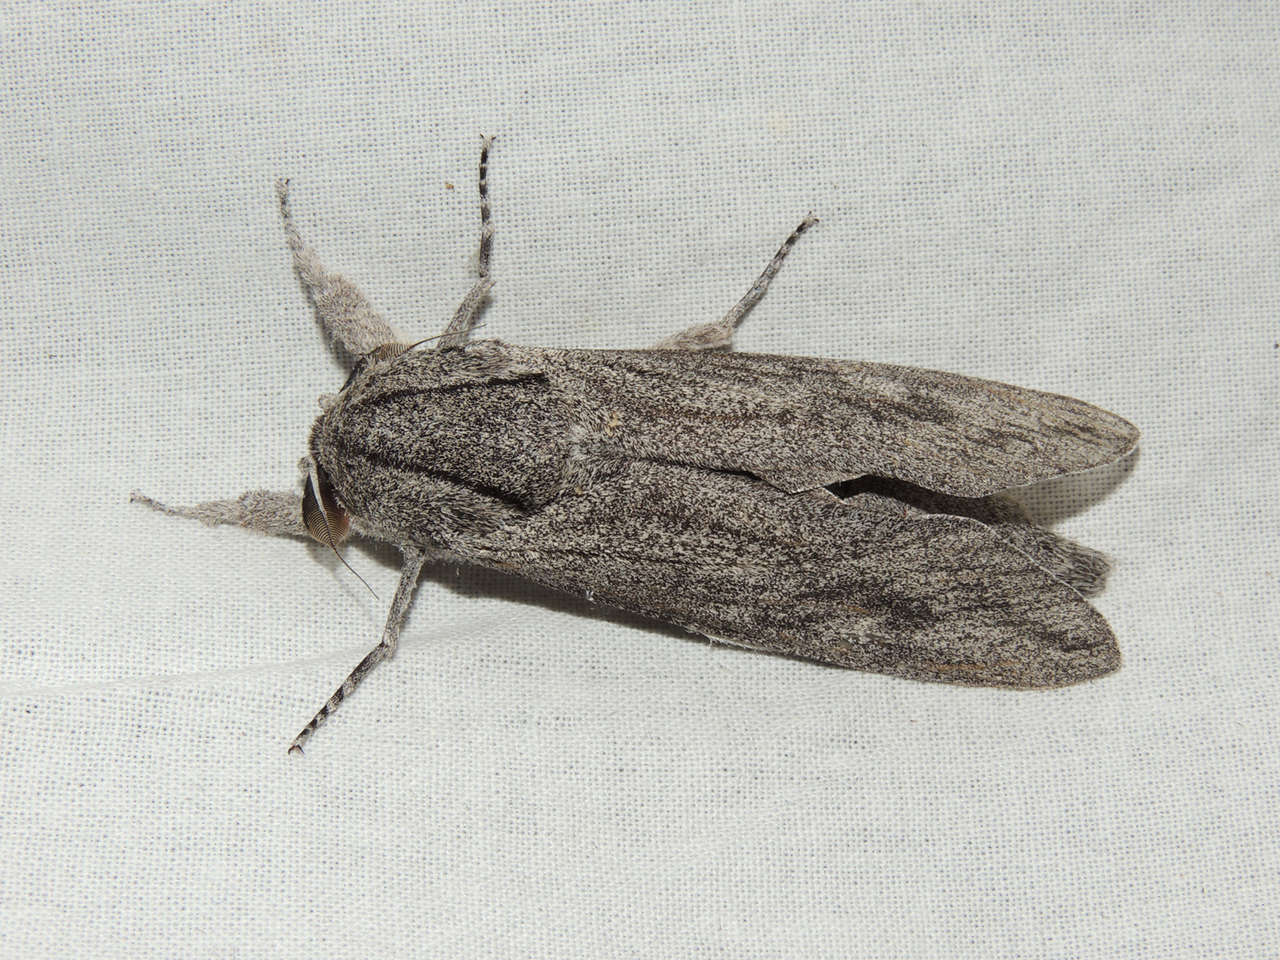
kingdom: Animalia
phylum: Arthropoda
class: Insecta
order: Lepidoptera
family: Cossidae
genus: Endoxyla
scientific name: Endoxyla edwardsorum
